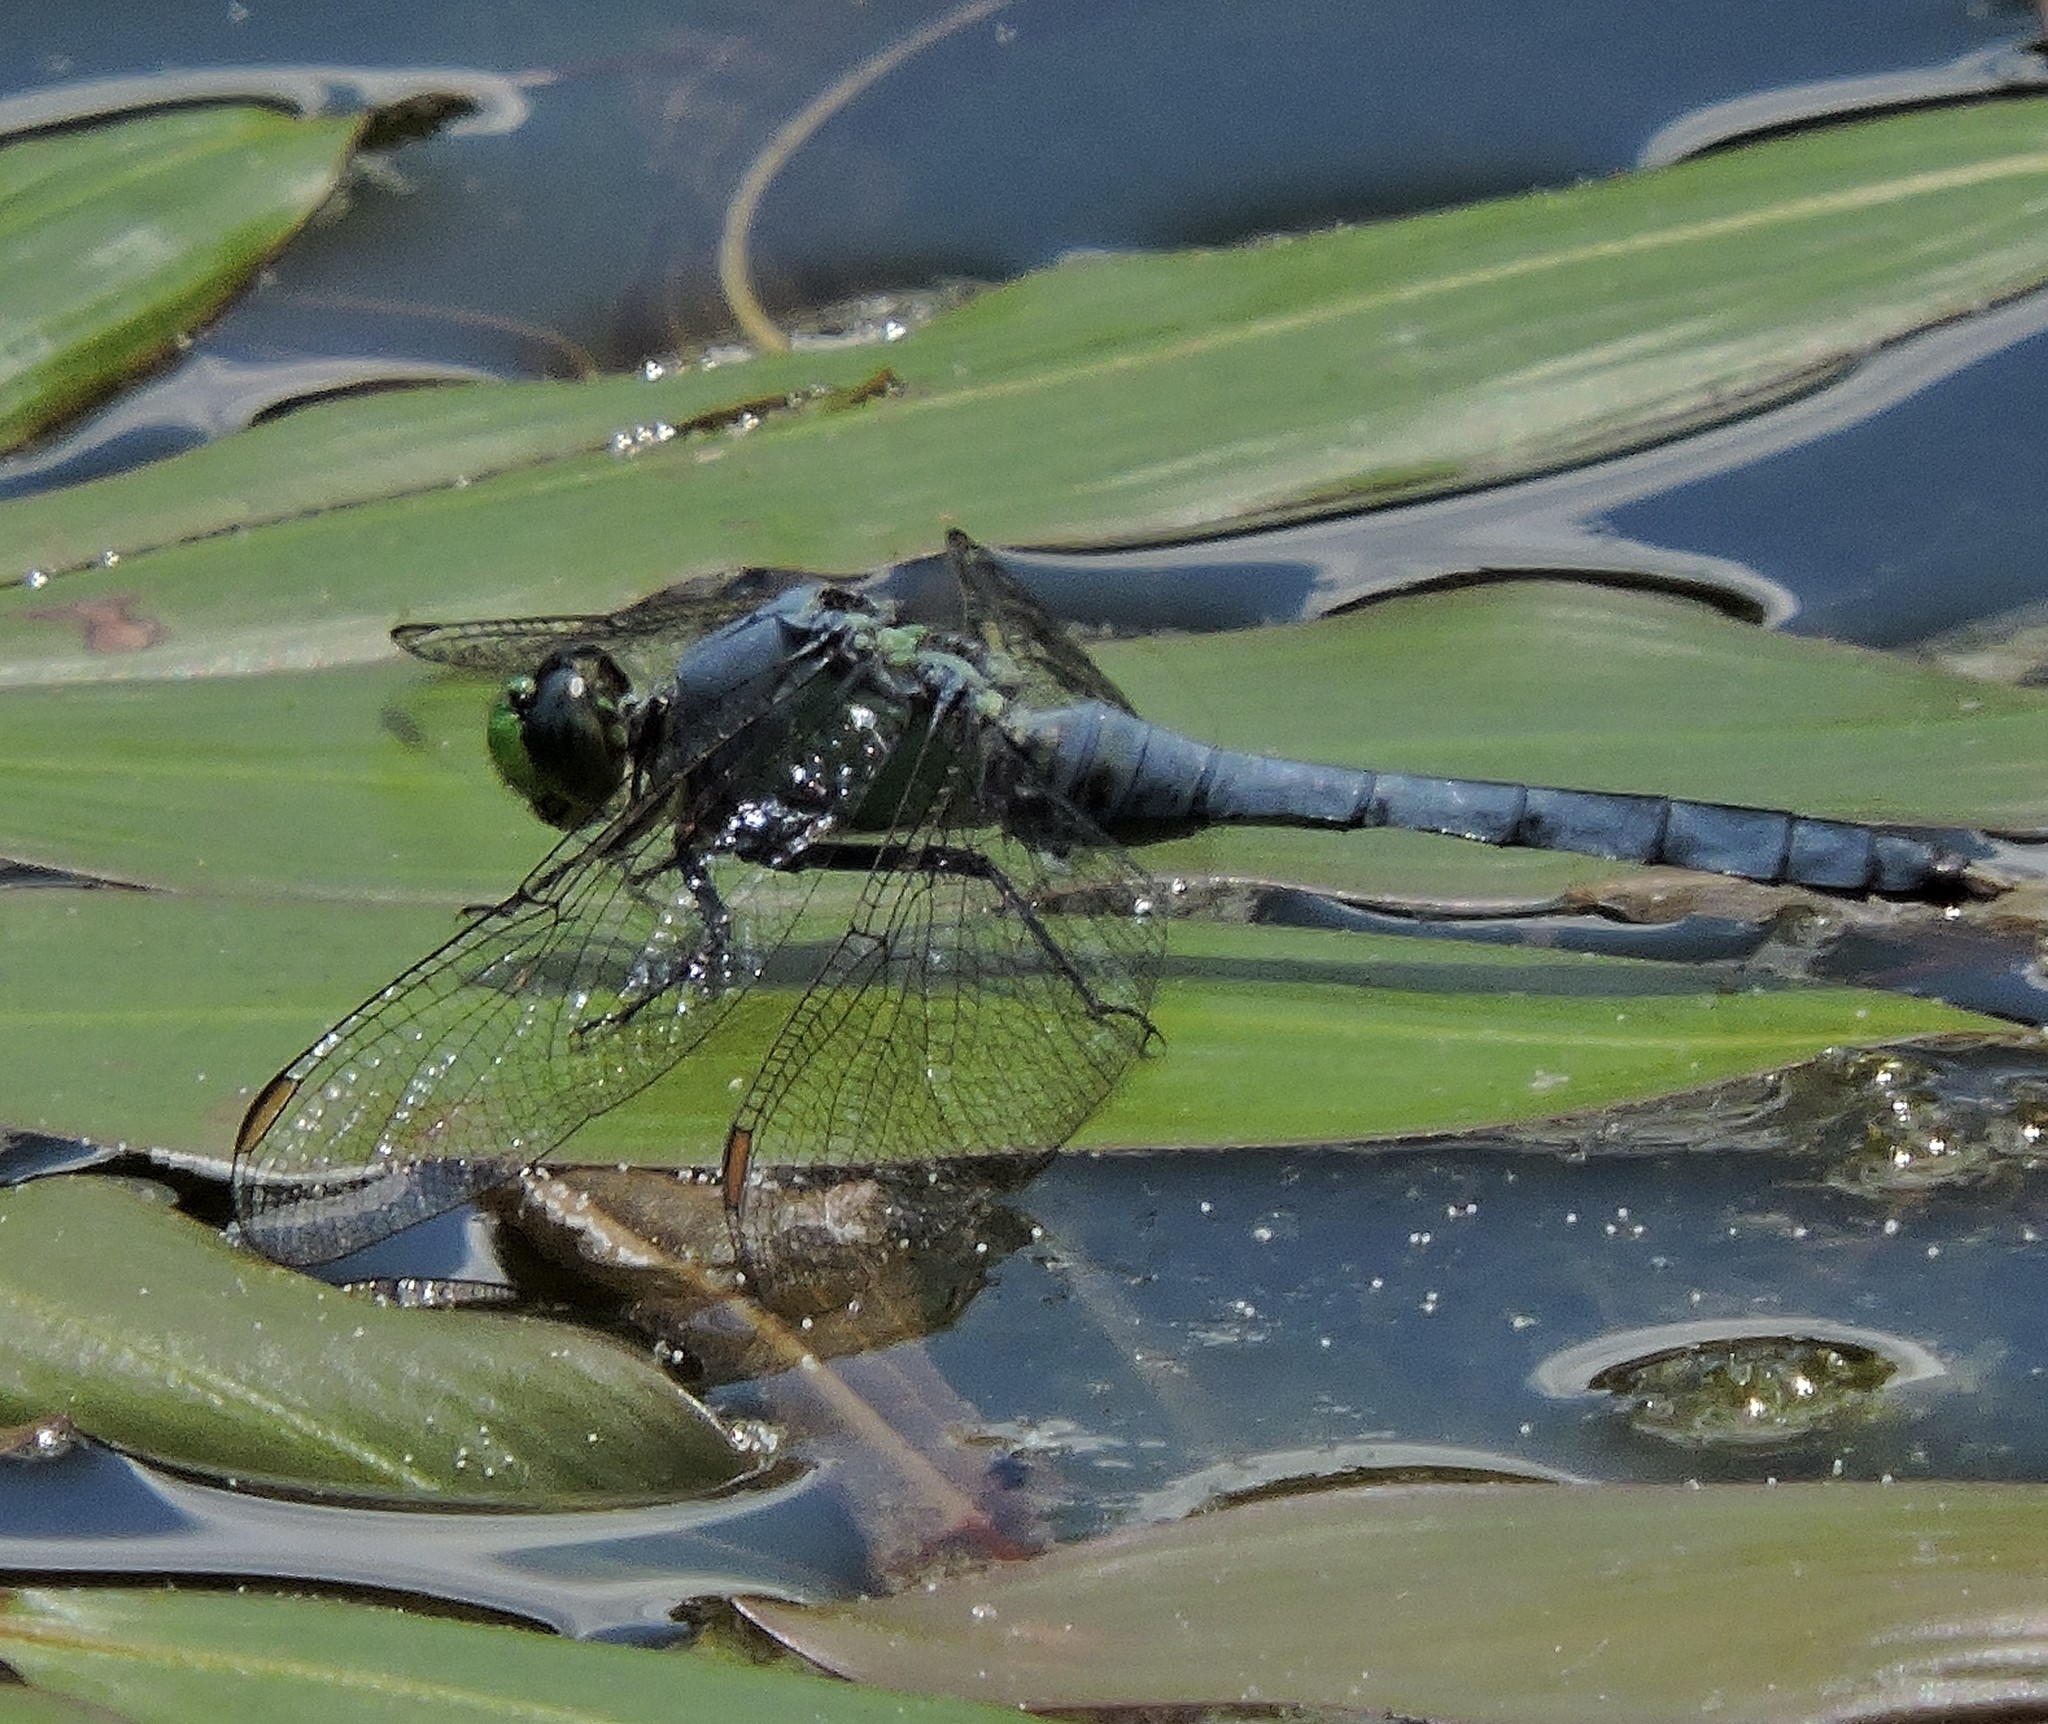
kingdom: Animalia
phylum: Arthropoda
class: Insecta
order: Odonata
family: Libellulidae
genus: Erythemis
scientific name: Erythemis simplicicollis
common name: Eastern pondhawk
